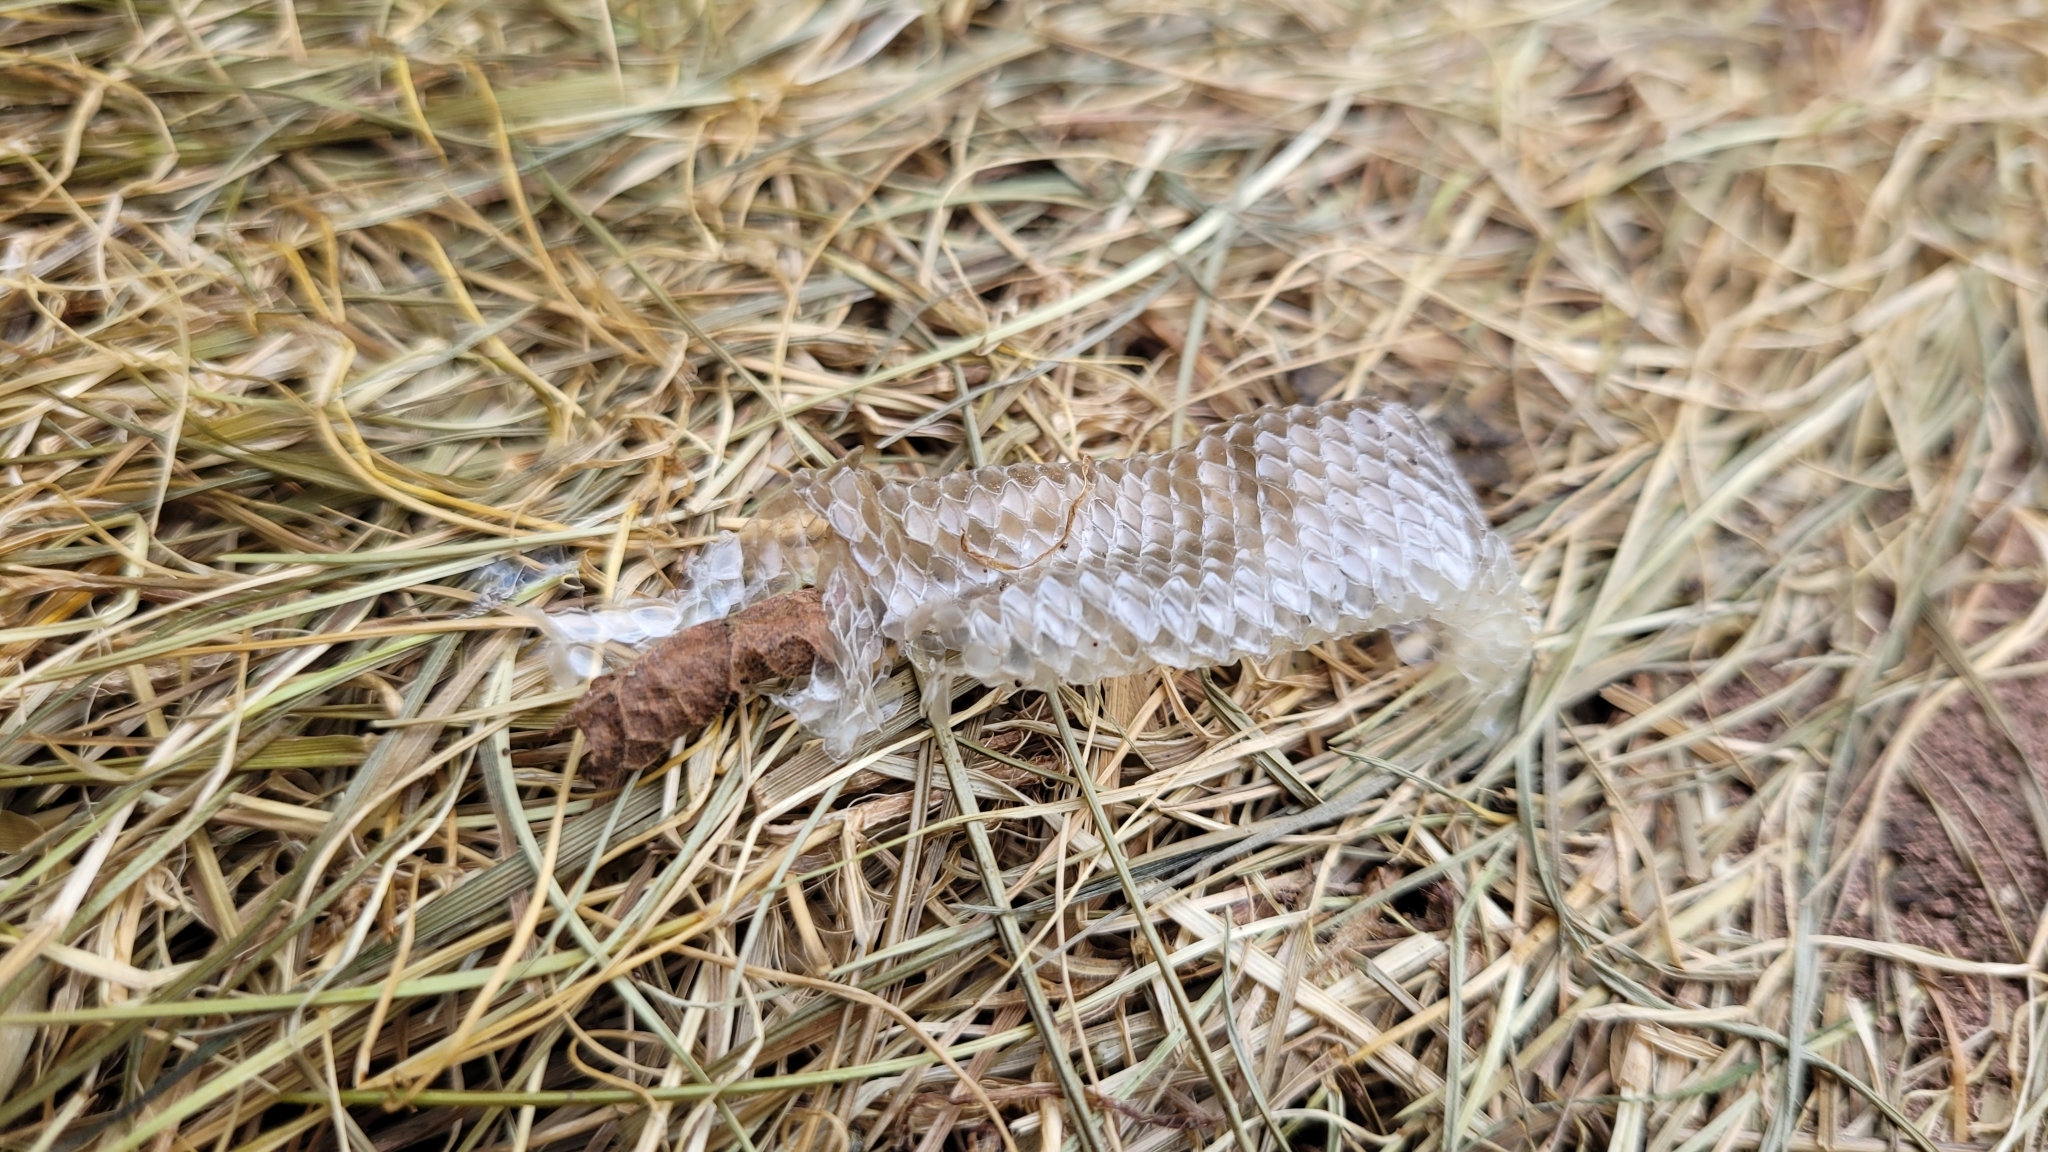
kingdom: Animalia
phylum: Chordata
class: Squamata
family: Anguidae
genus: Anguis
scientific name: Anguis fragilis
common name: Slow worm
